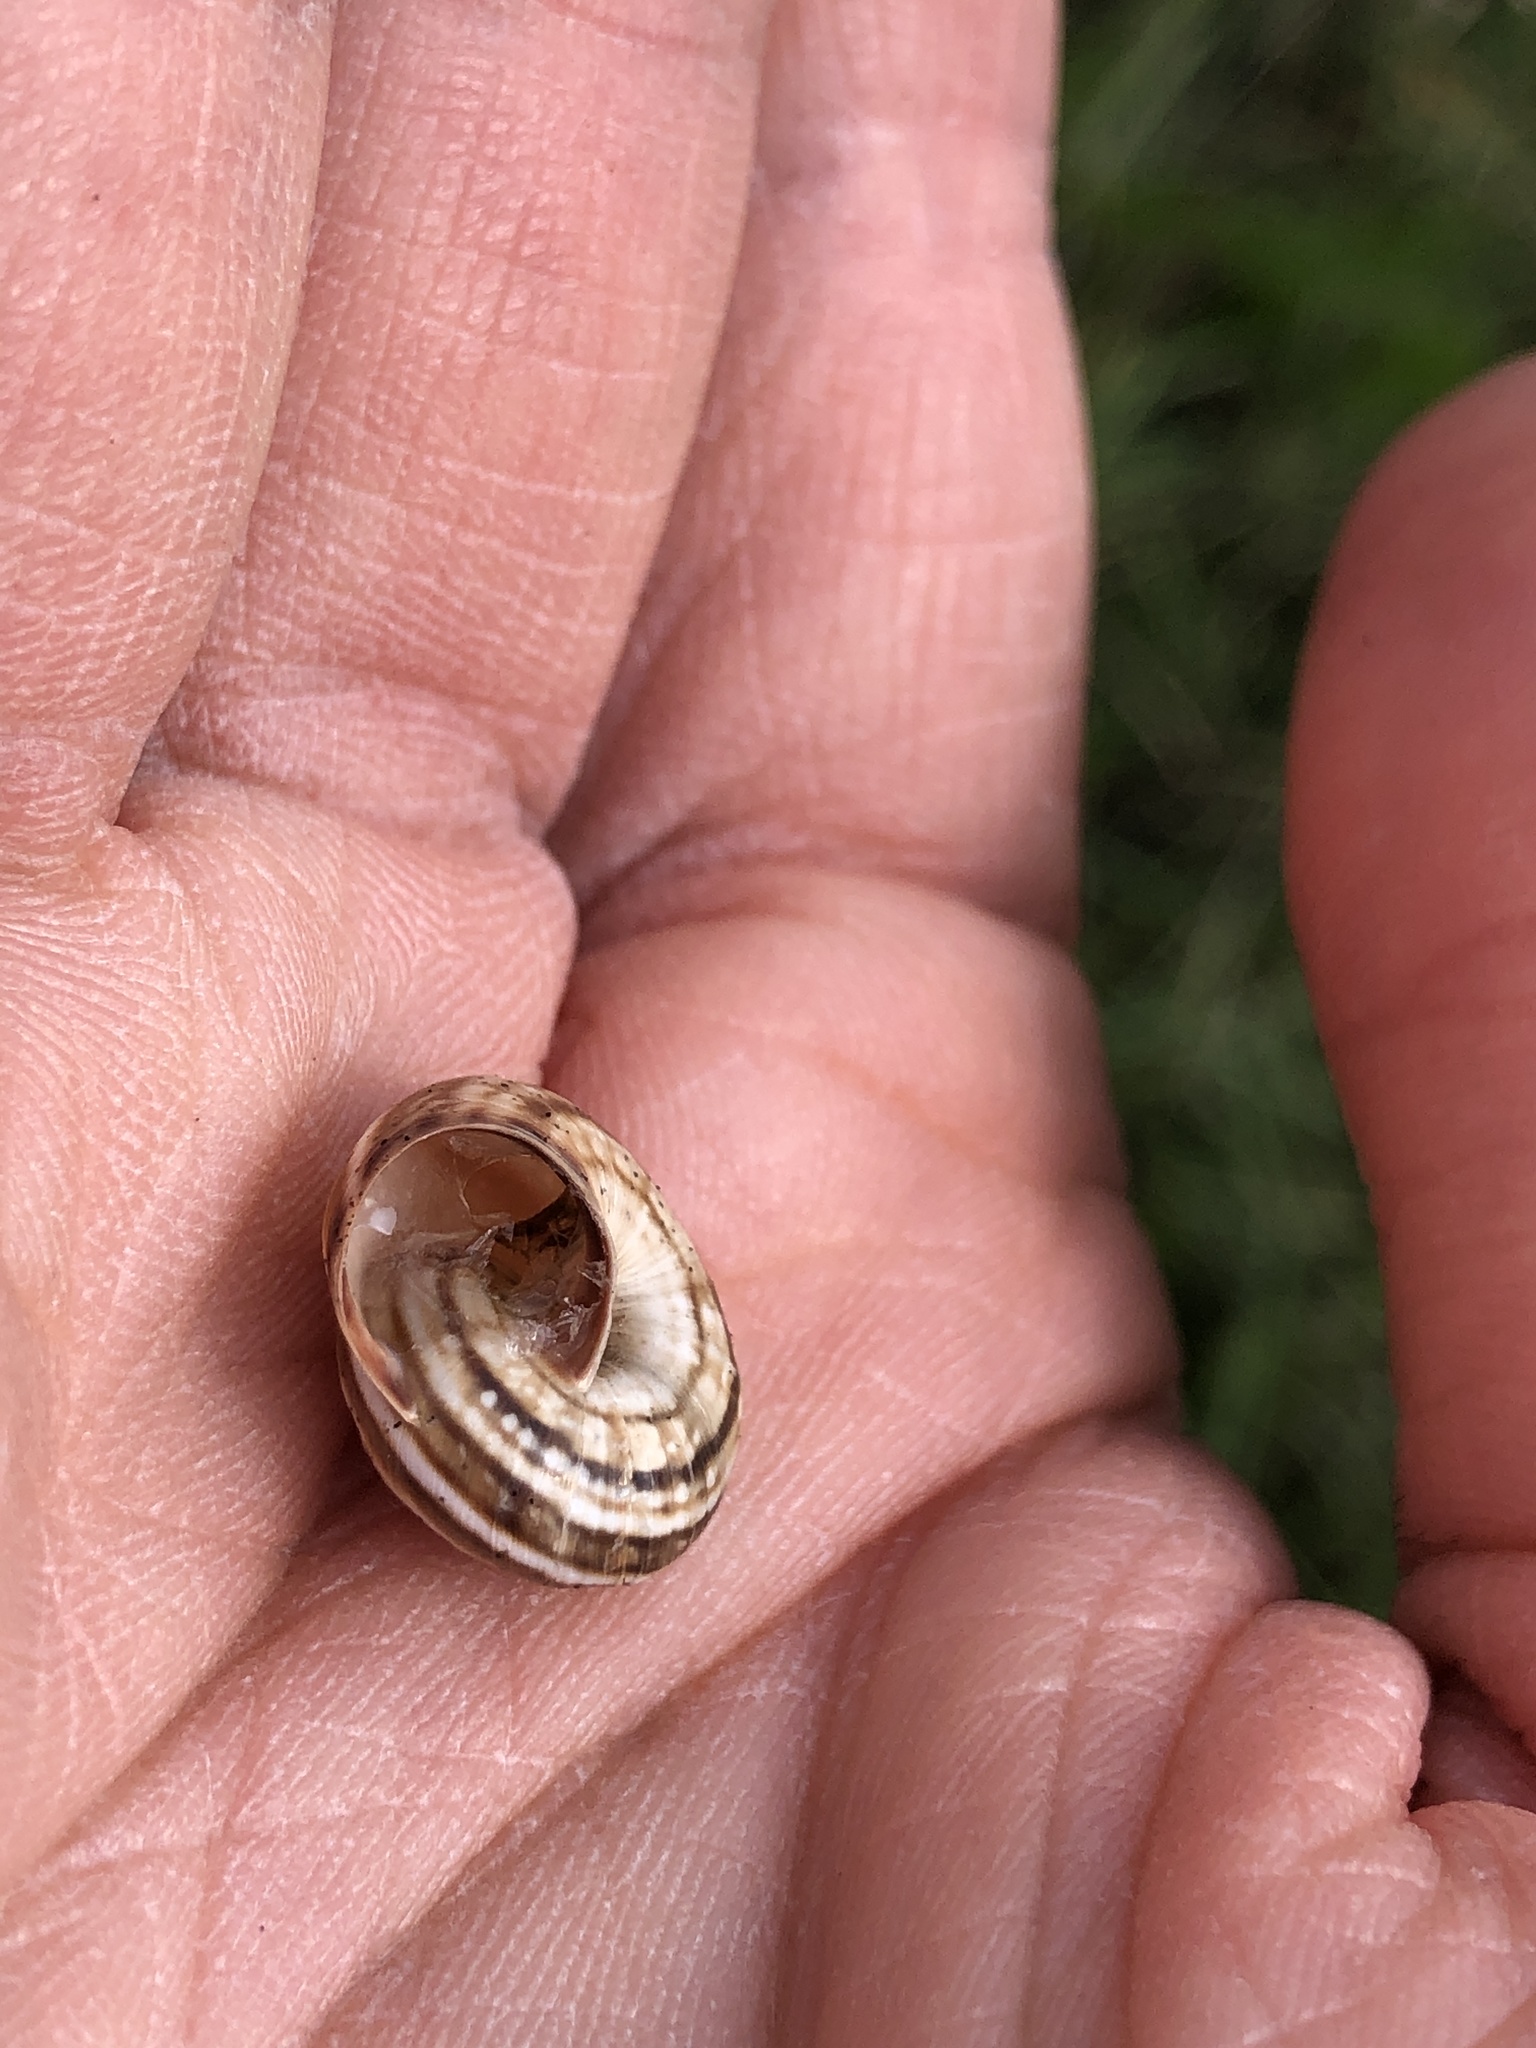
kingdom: Animalia
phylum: Mollusca
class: Gastropoda
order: Stylommatophora
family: Geomitridae
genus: Cernuella
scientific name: Cernuella virgata
